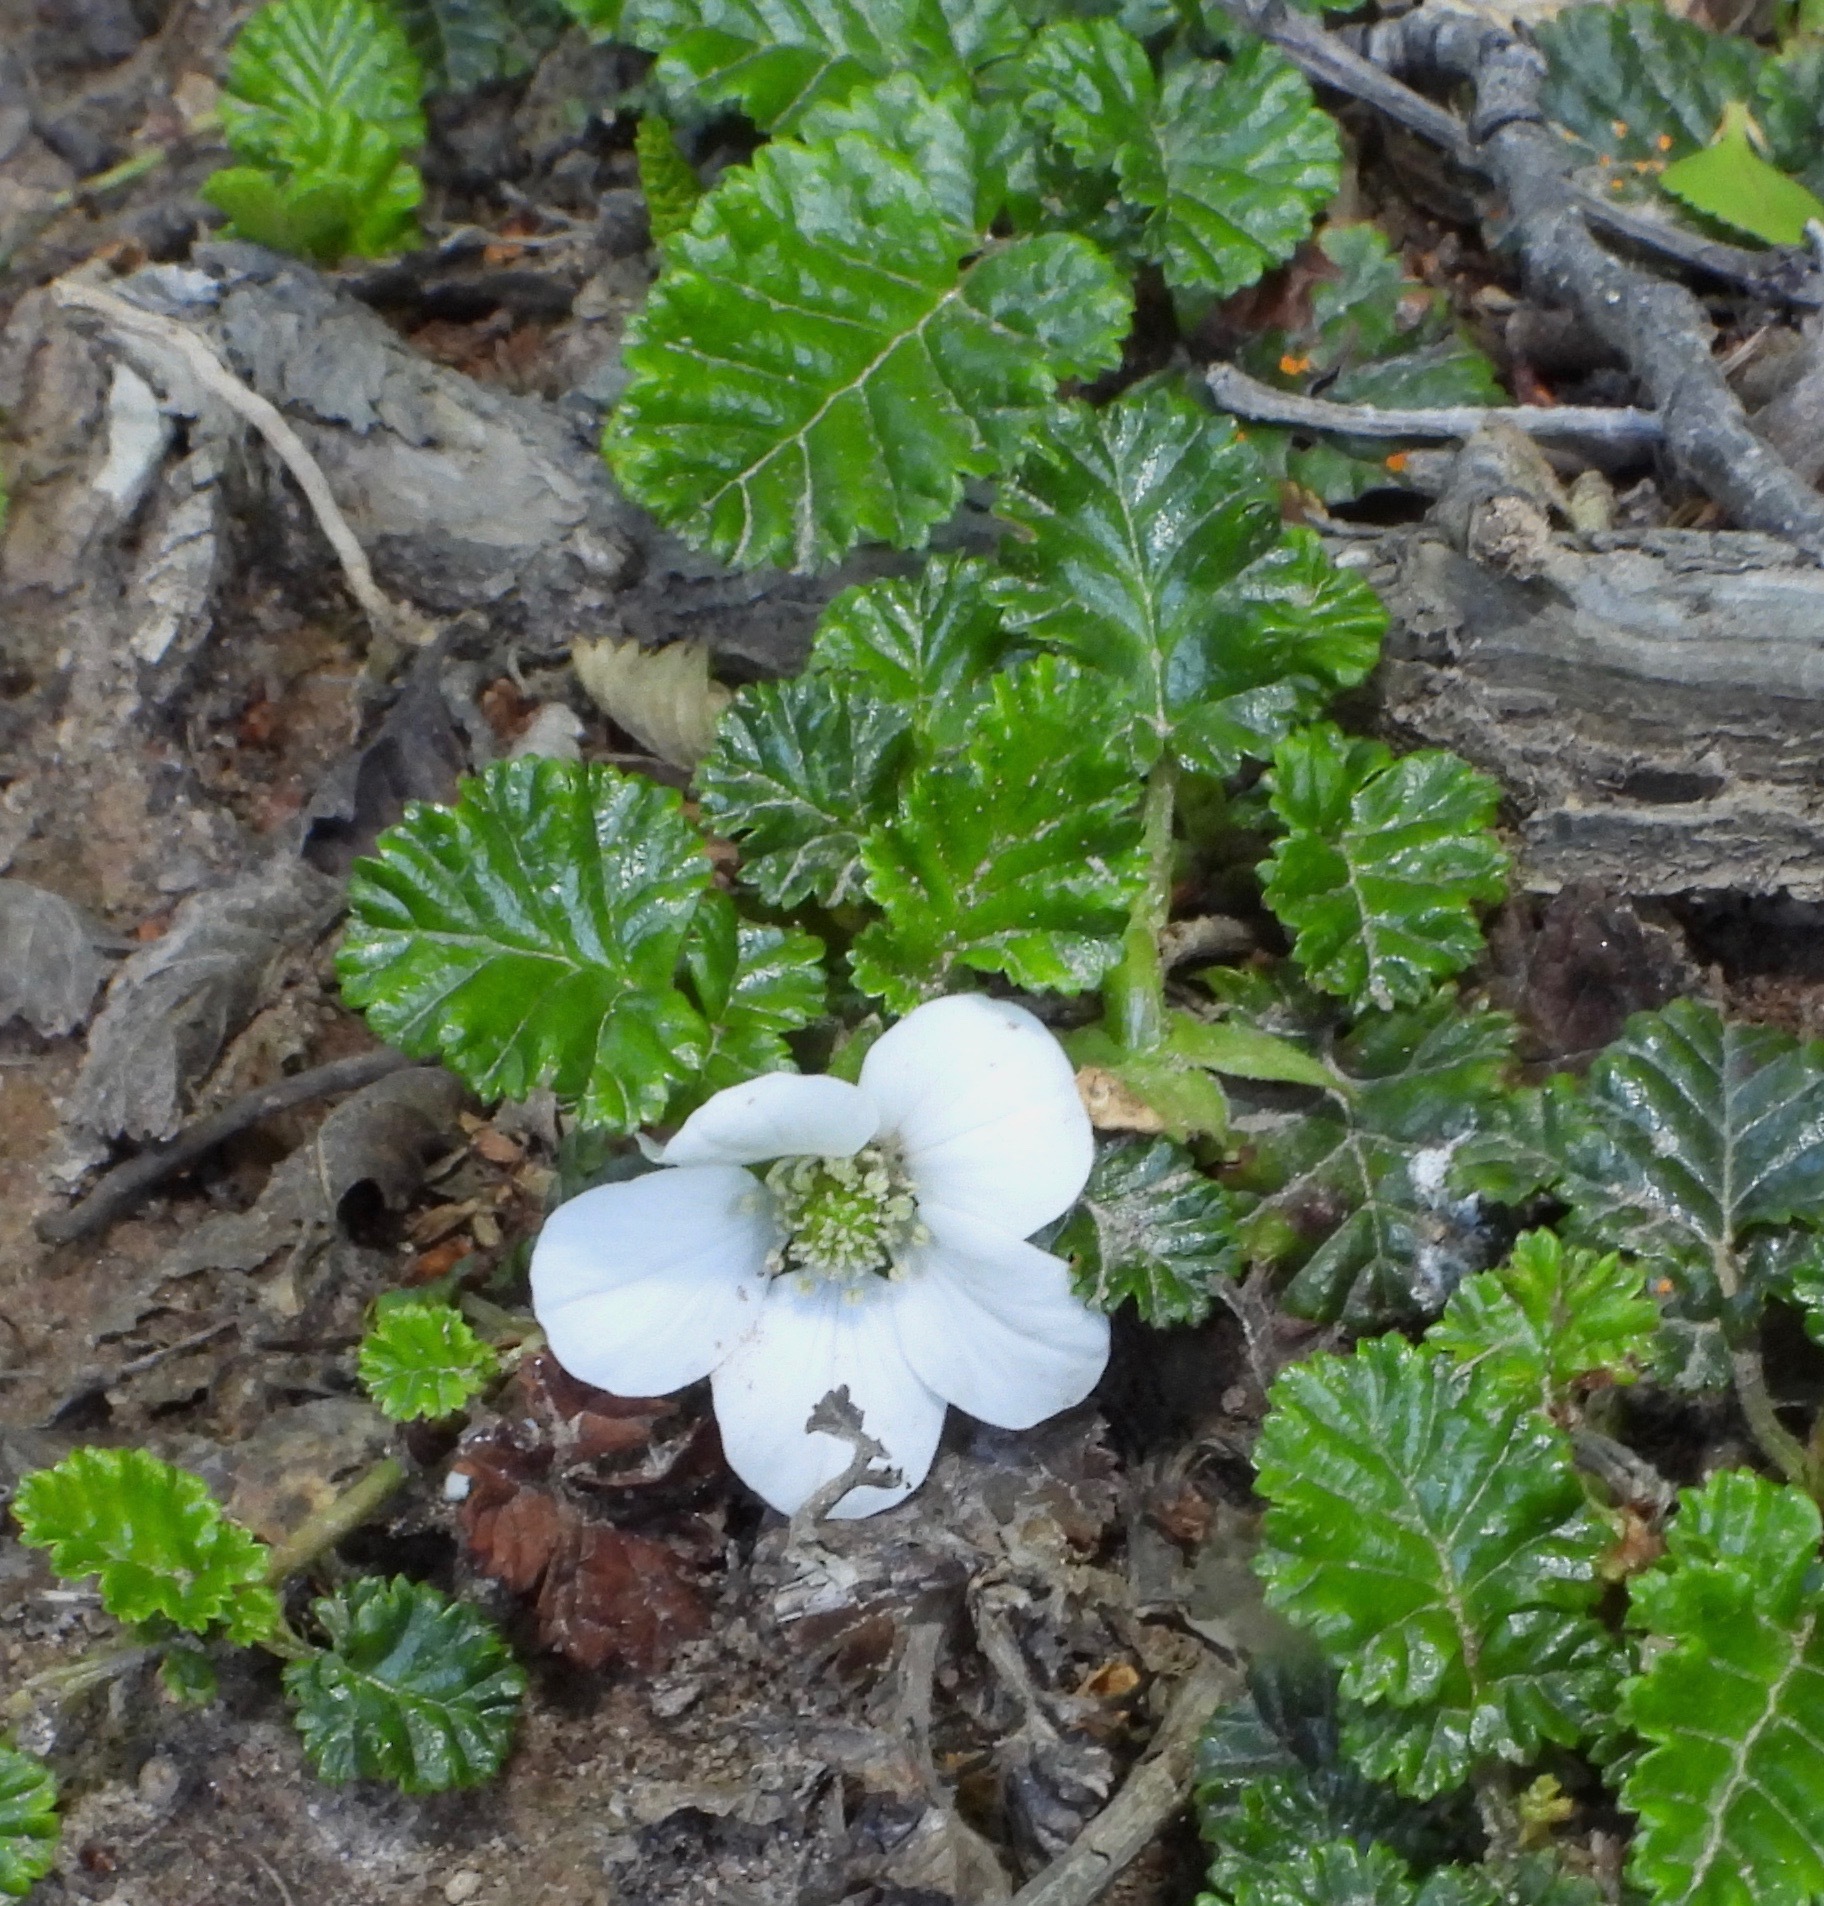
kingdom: Plantae
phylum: Tracheophyta
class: Magnoliopsida
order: Rosales
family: Rosaceae
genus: Rubus
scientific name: Rubus geoides
